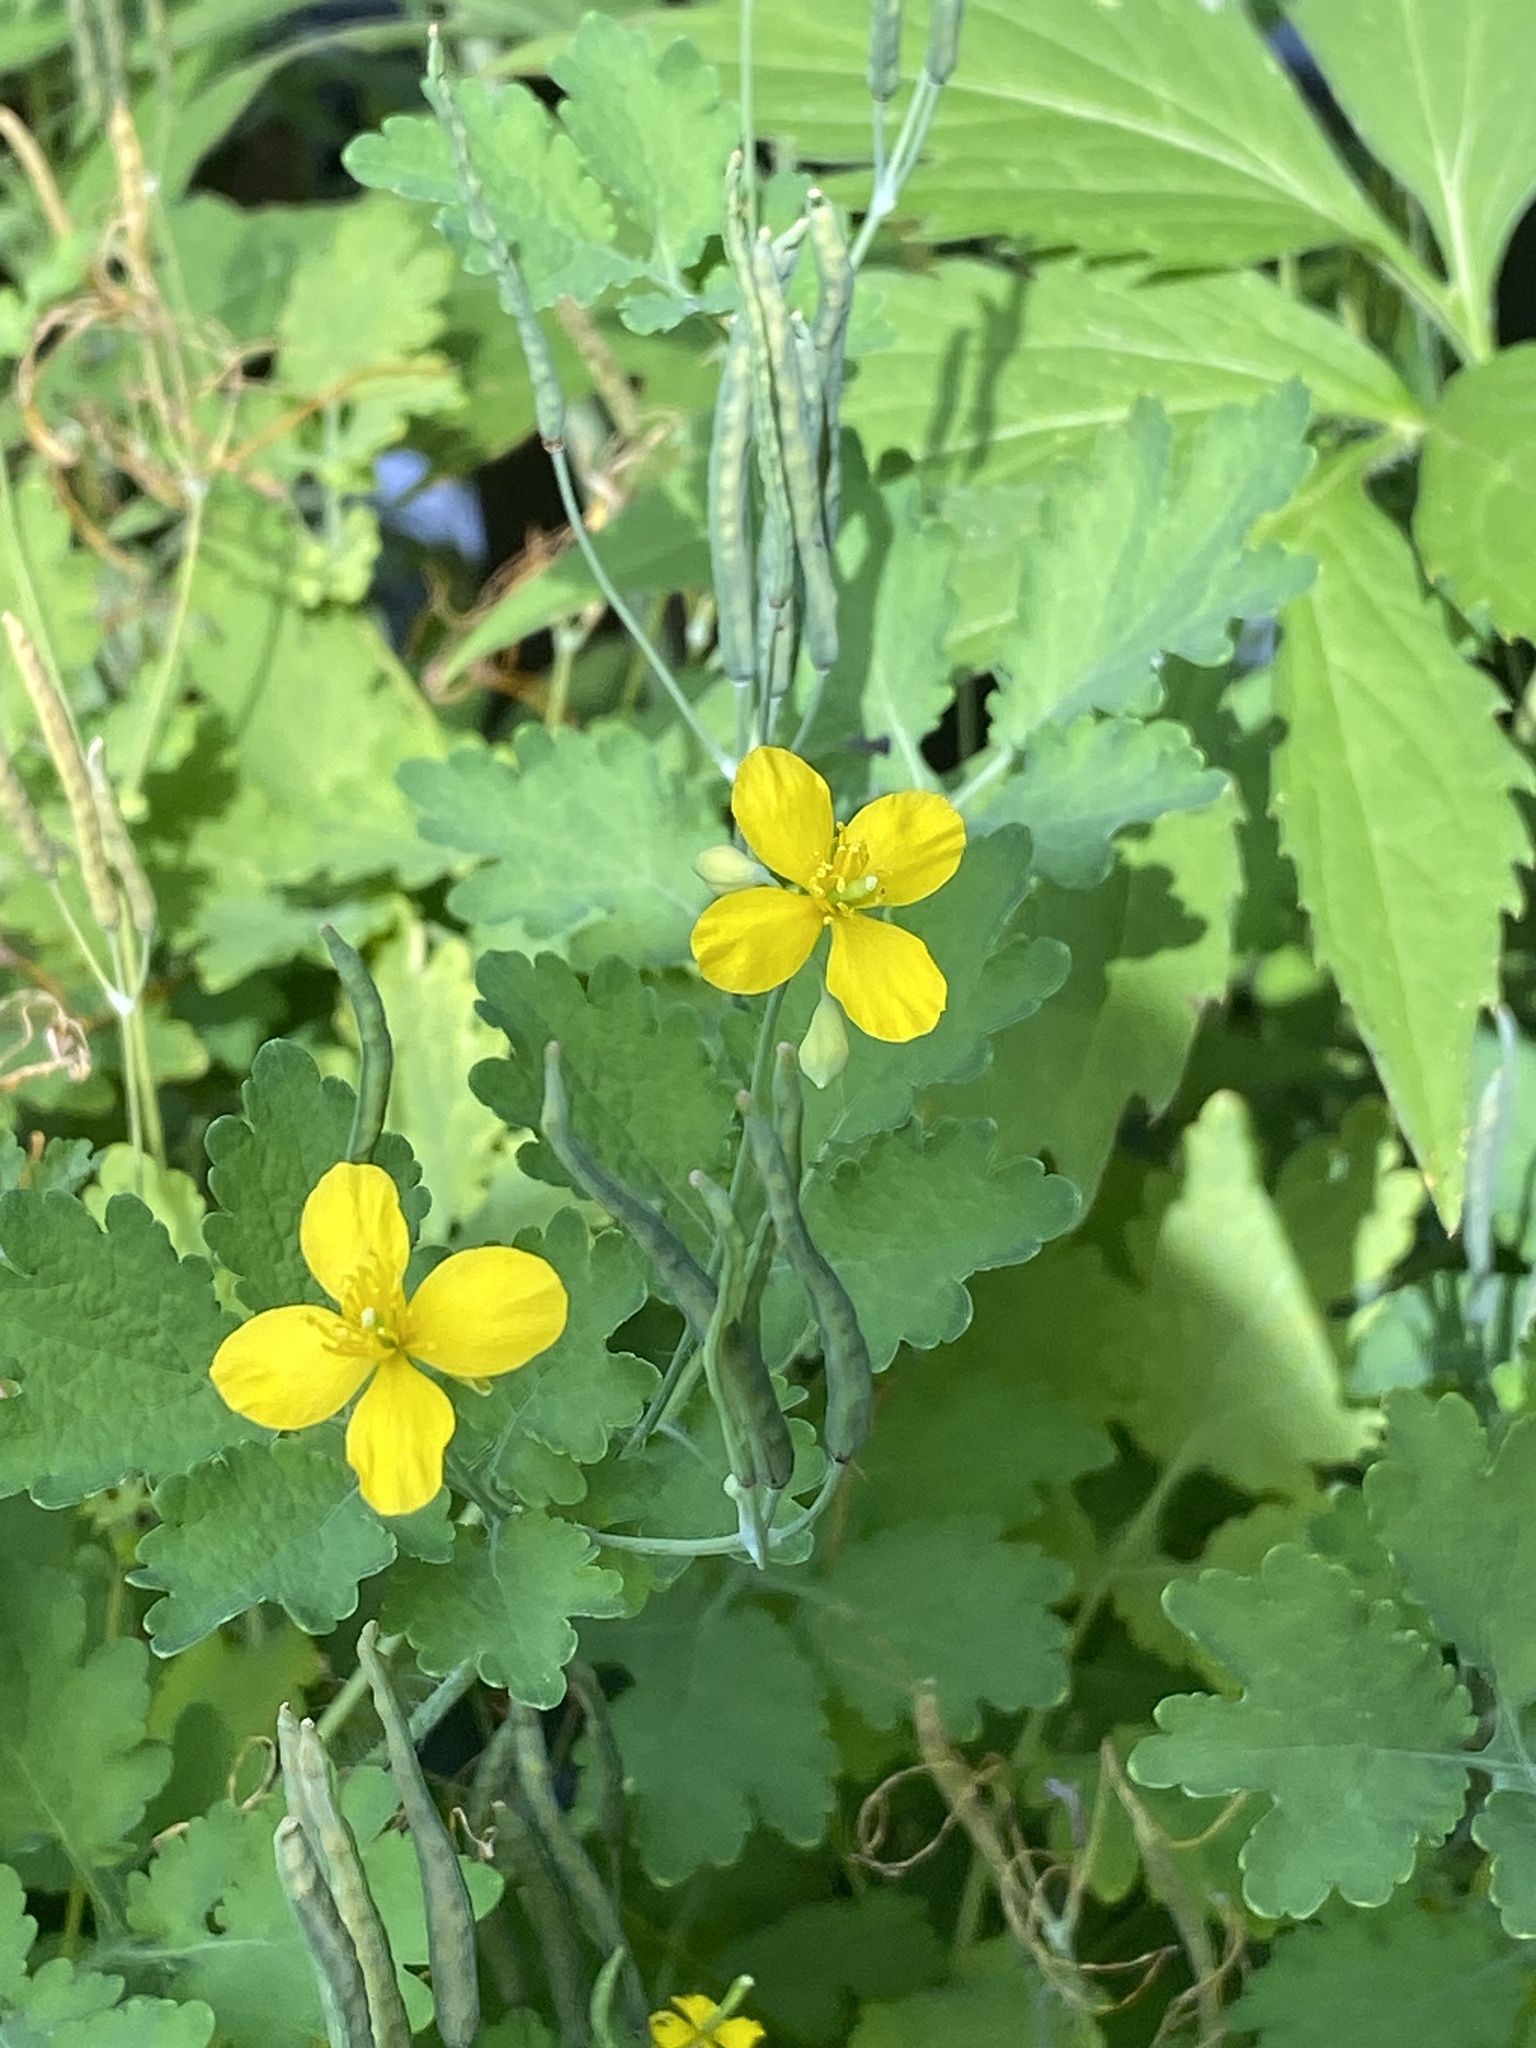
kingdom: Plantae
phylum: Tracheophyta
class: Magnoliopsida
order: Ranunculales
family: Papaveraceae
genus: Chelidonium
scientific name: Chelidonium majus
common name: Greater celandine
